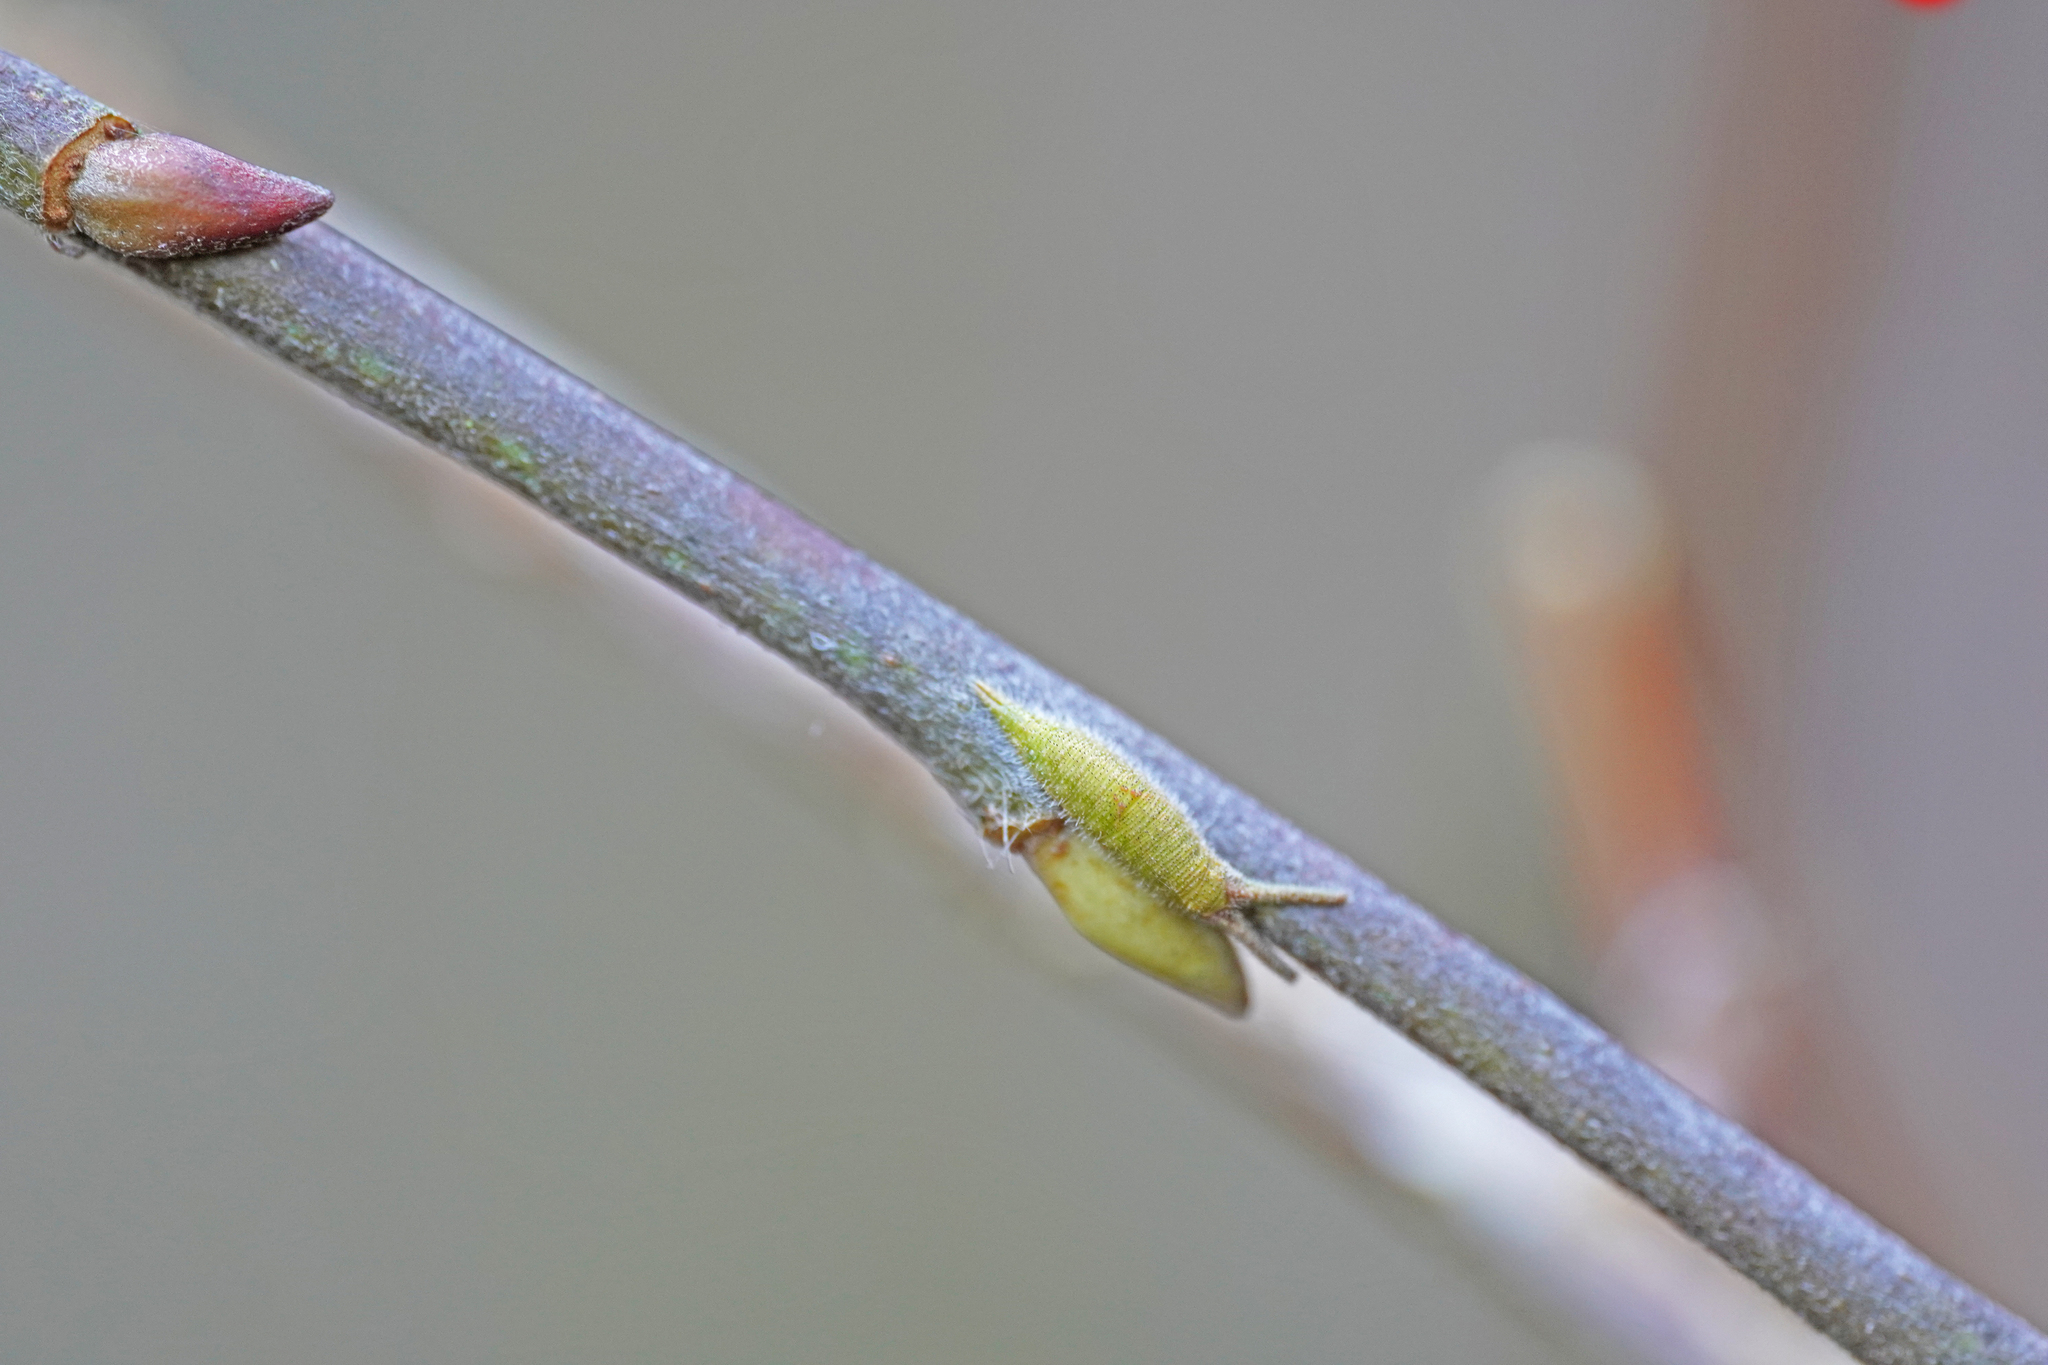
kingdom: Animalia
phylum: Arthropoda
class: Insecta
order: Lepidoptera
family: Nymphalidae
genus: Apatura
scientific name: Apatura iris
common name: Purple emperor
